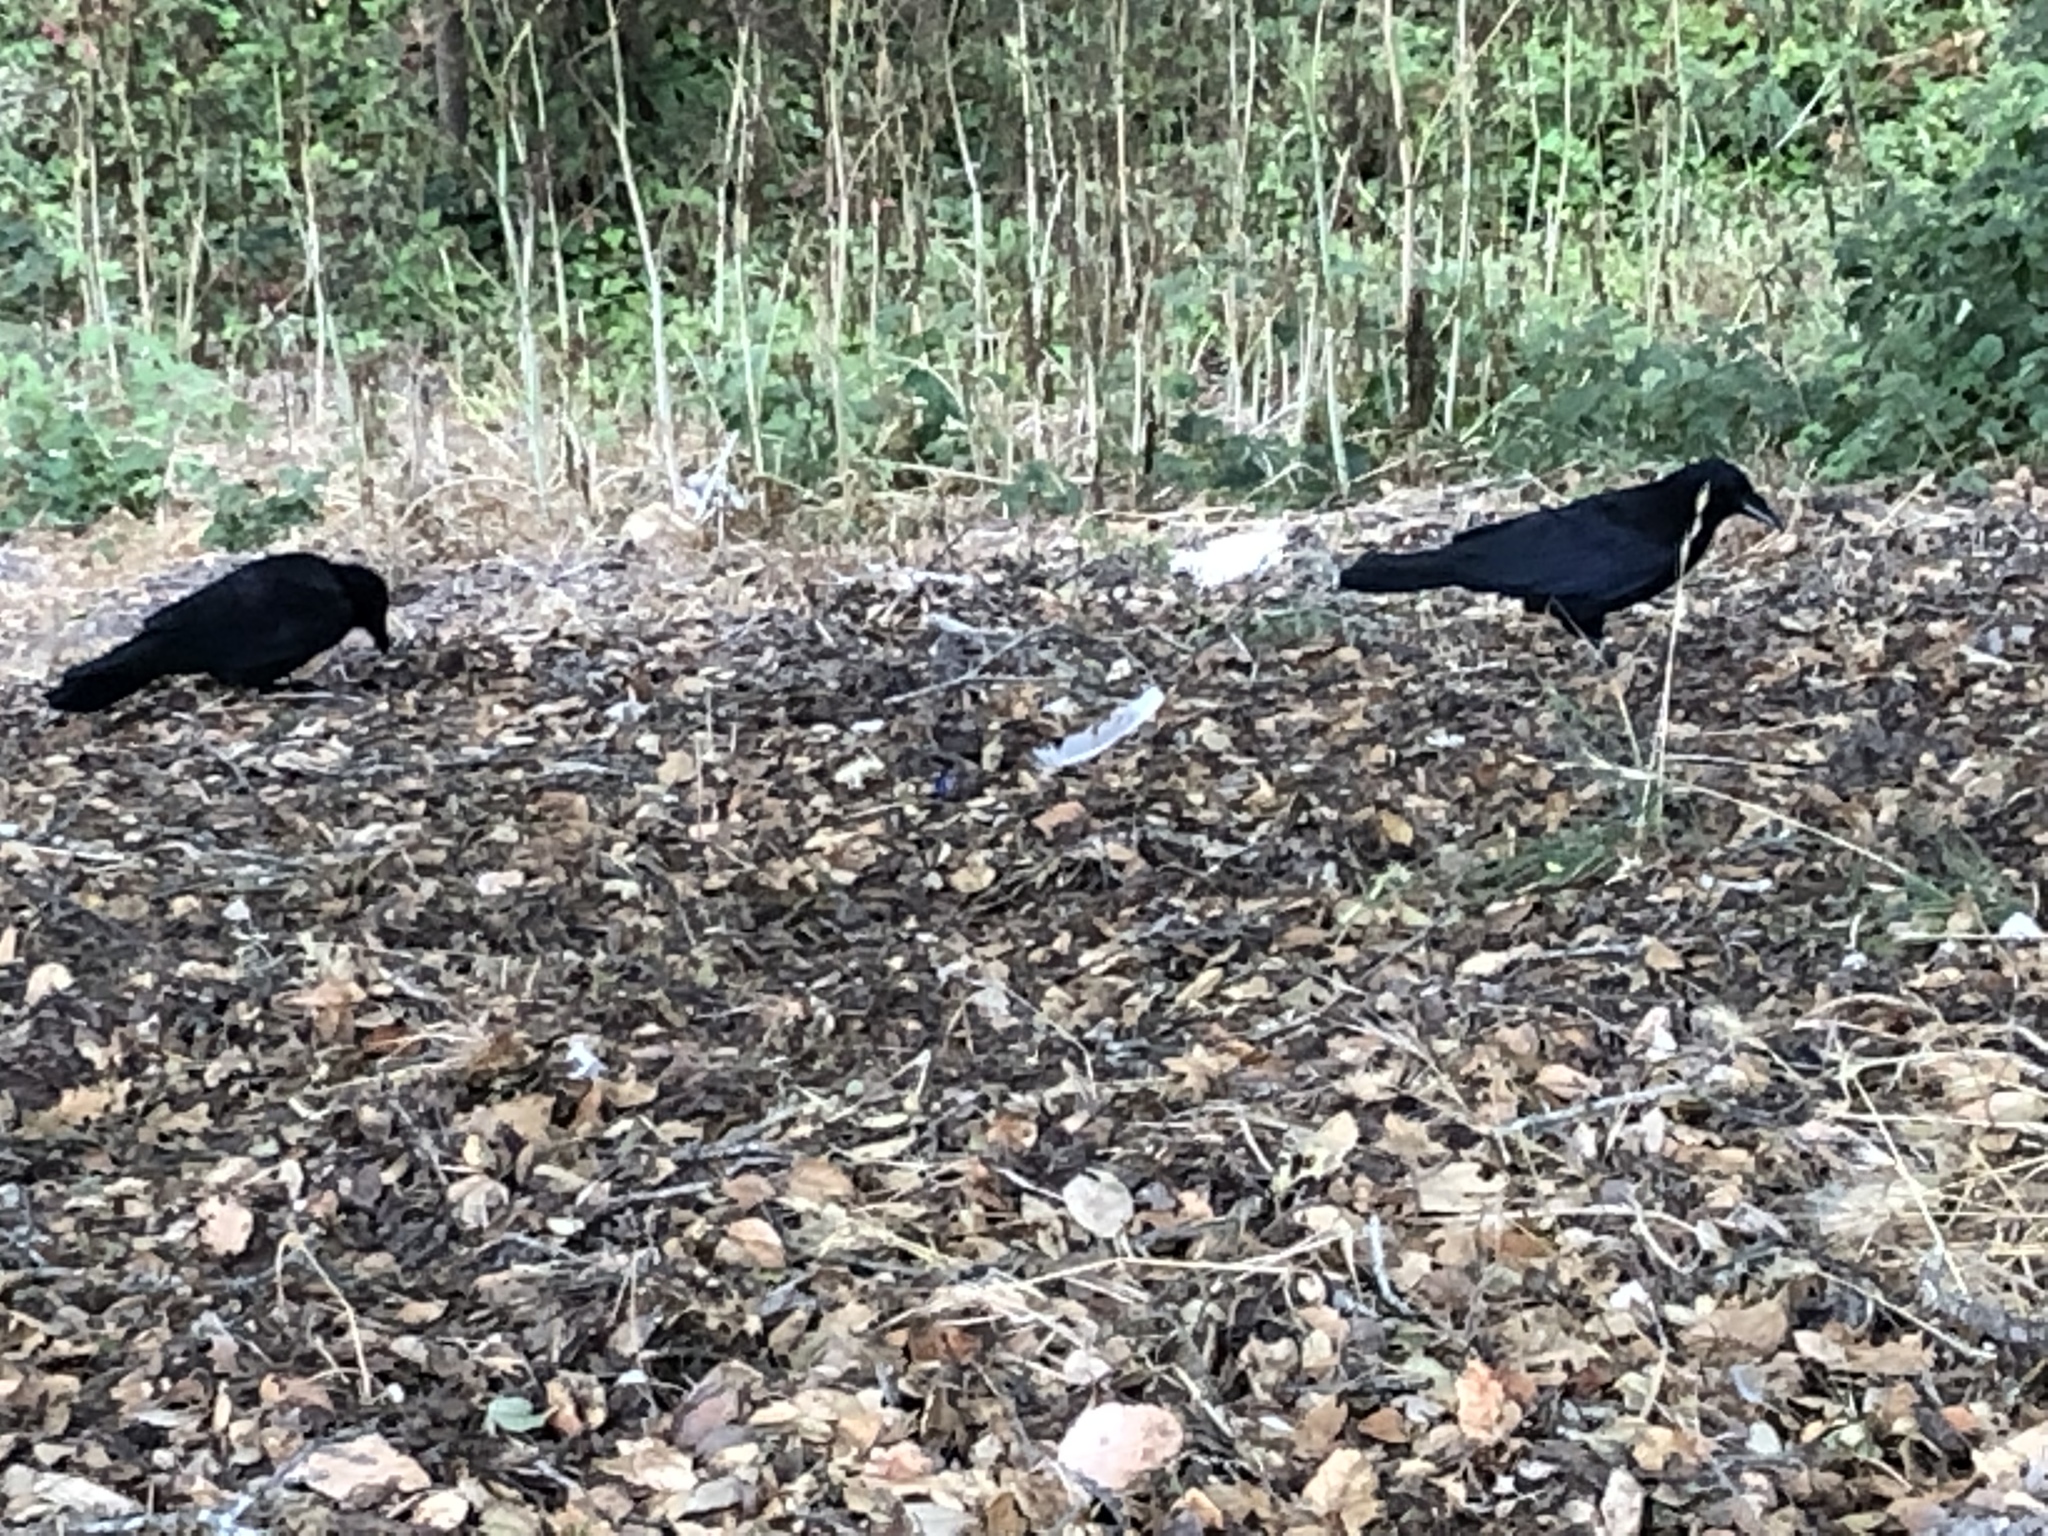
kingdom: Animalia
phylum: Chordata
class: Aves
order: Passeriformes
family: Corvidae
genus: Corvus
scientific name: Corvus brachyrhynchos
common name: American crow
